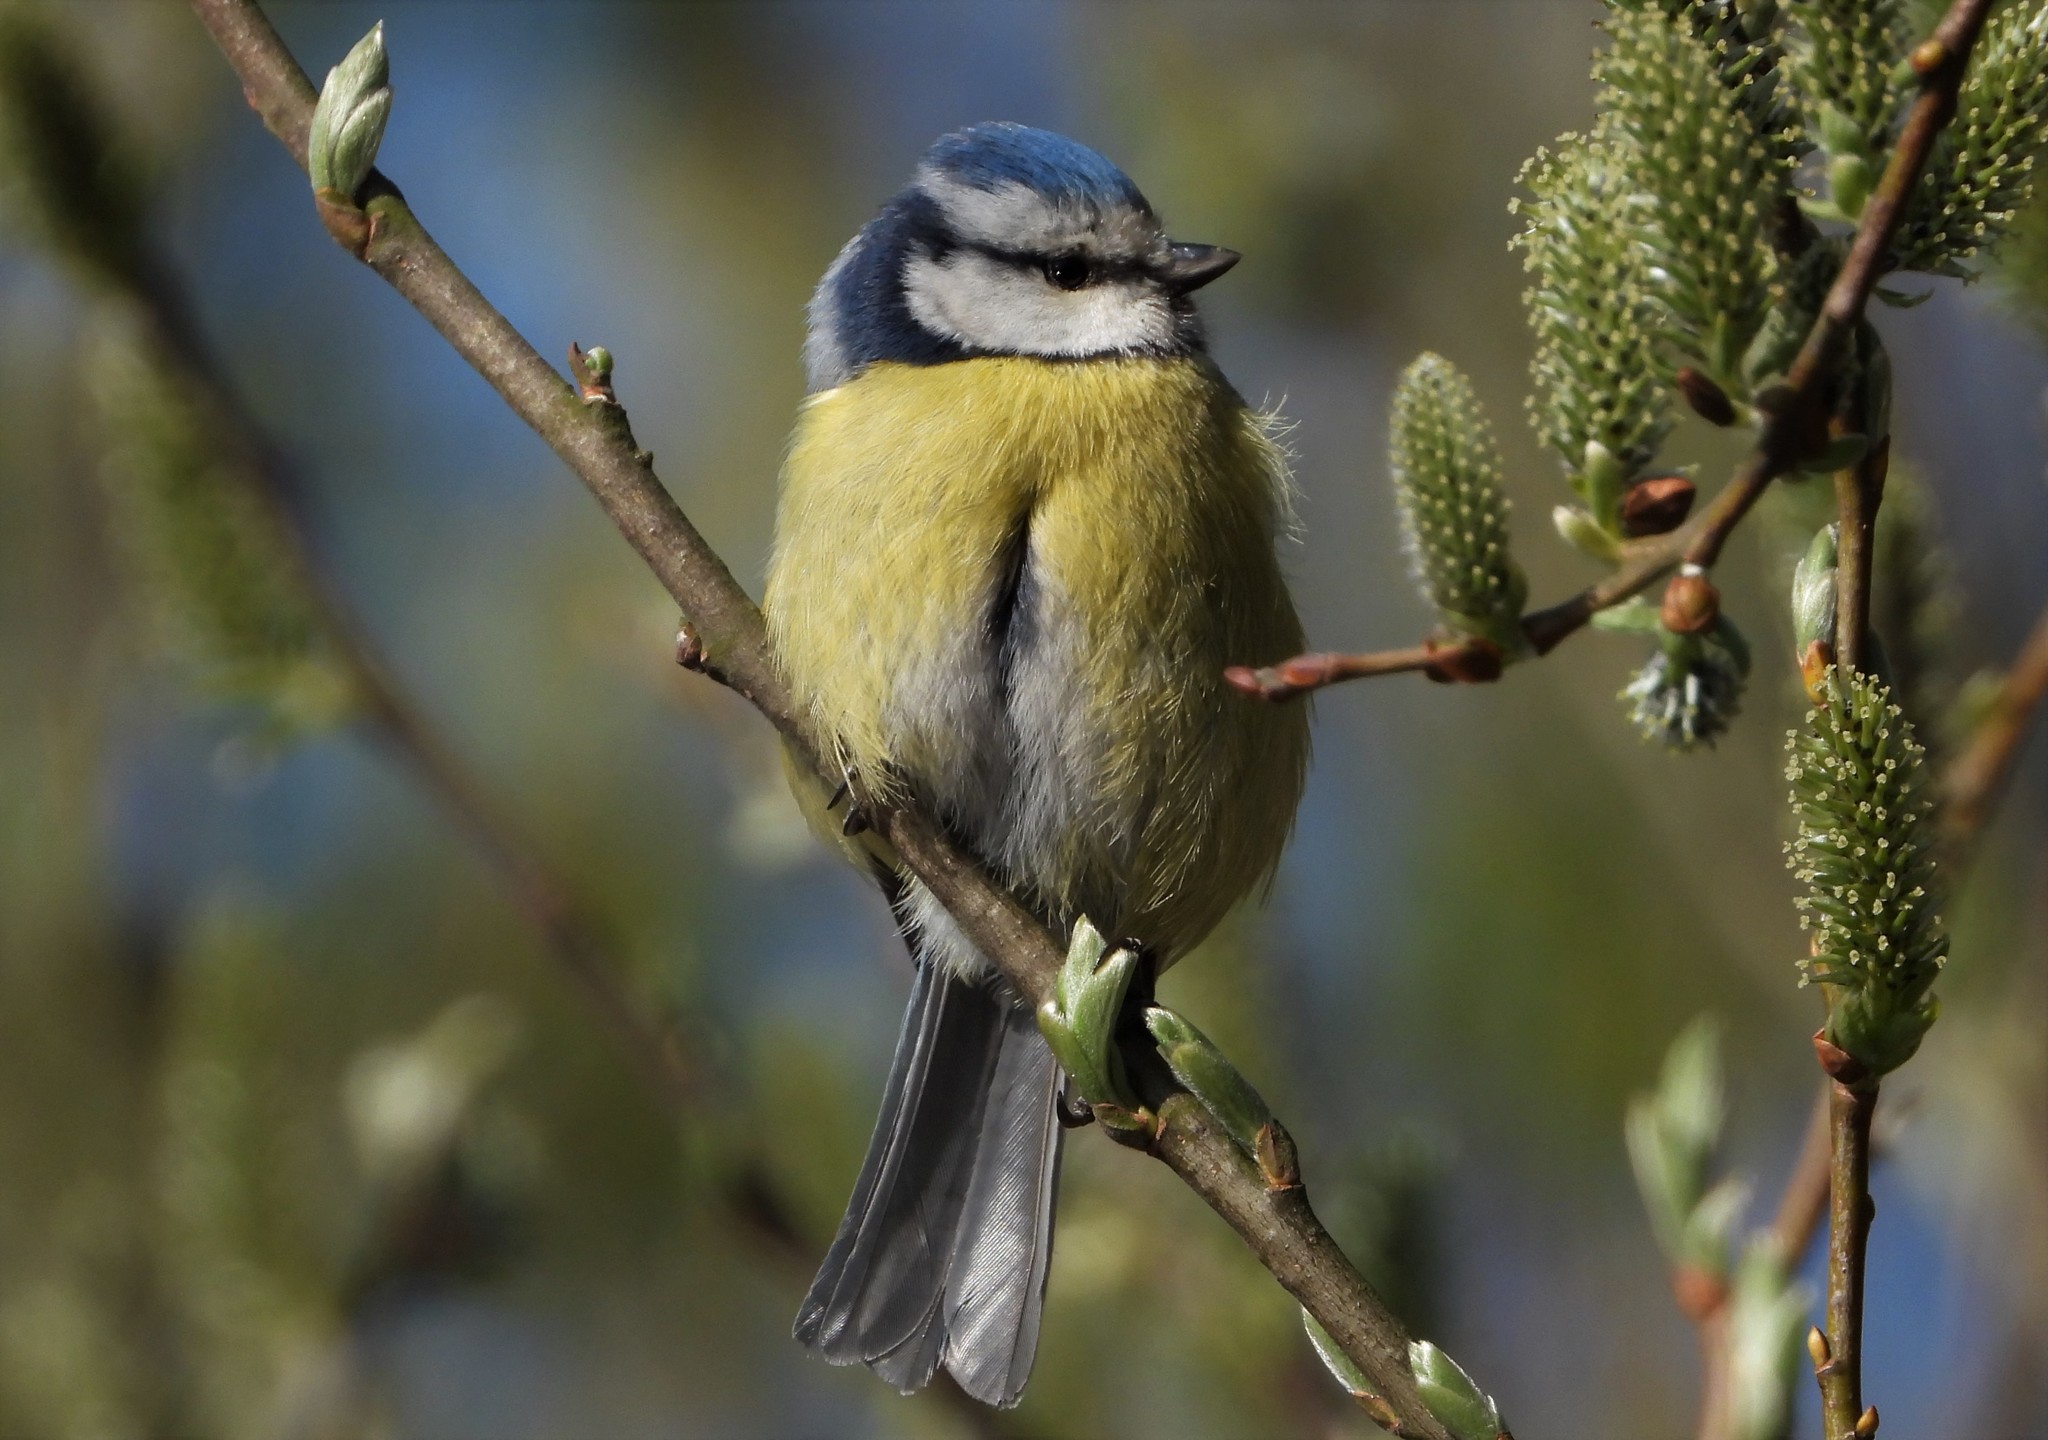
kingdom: Animalia
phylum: Chordata
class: Aves
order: Passeriformes
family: Paridae
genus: Cyanistes
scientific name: Cyanistes caeruleus
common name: Eurasian blue tit
